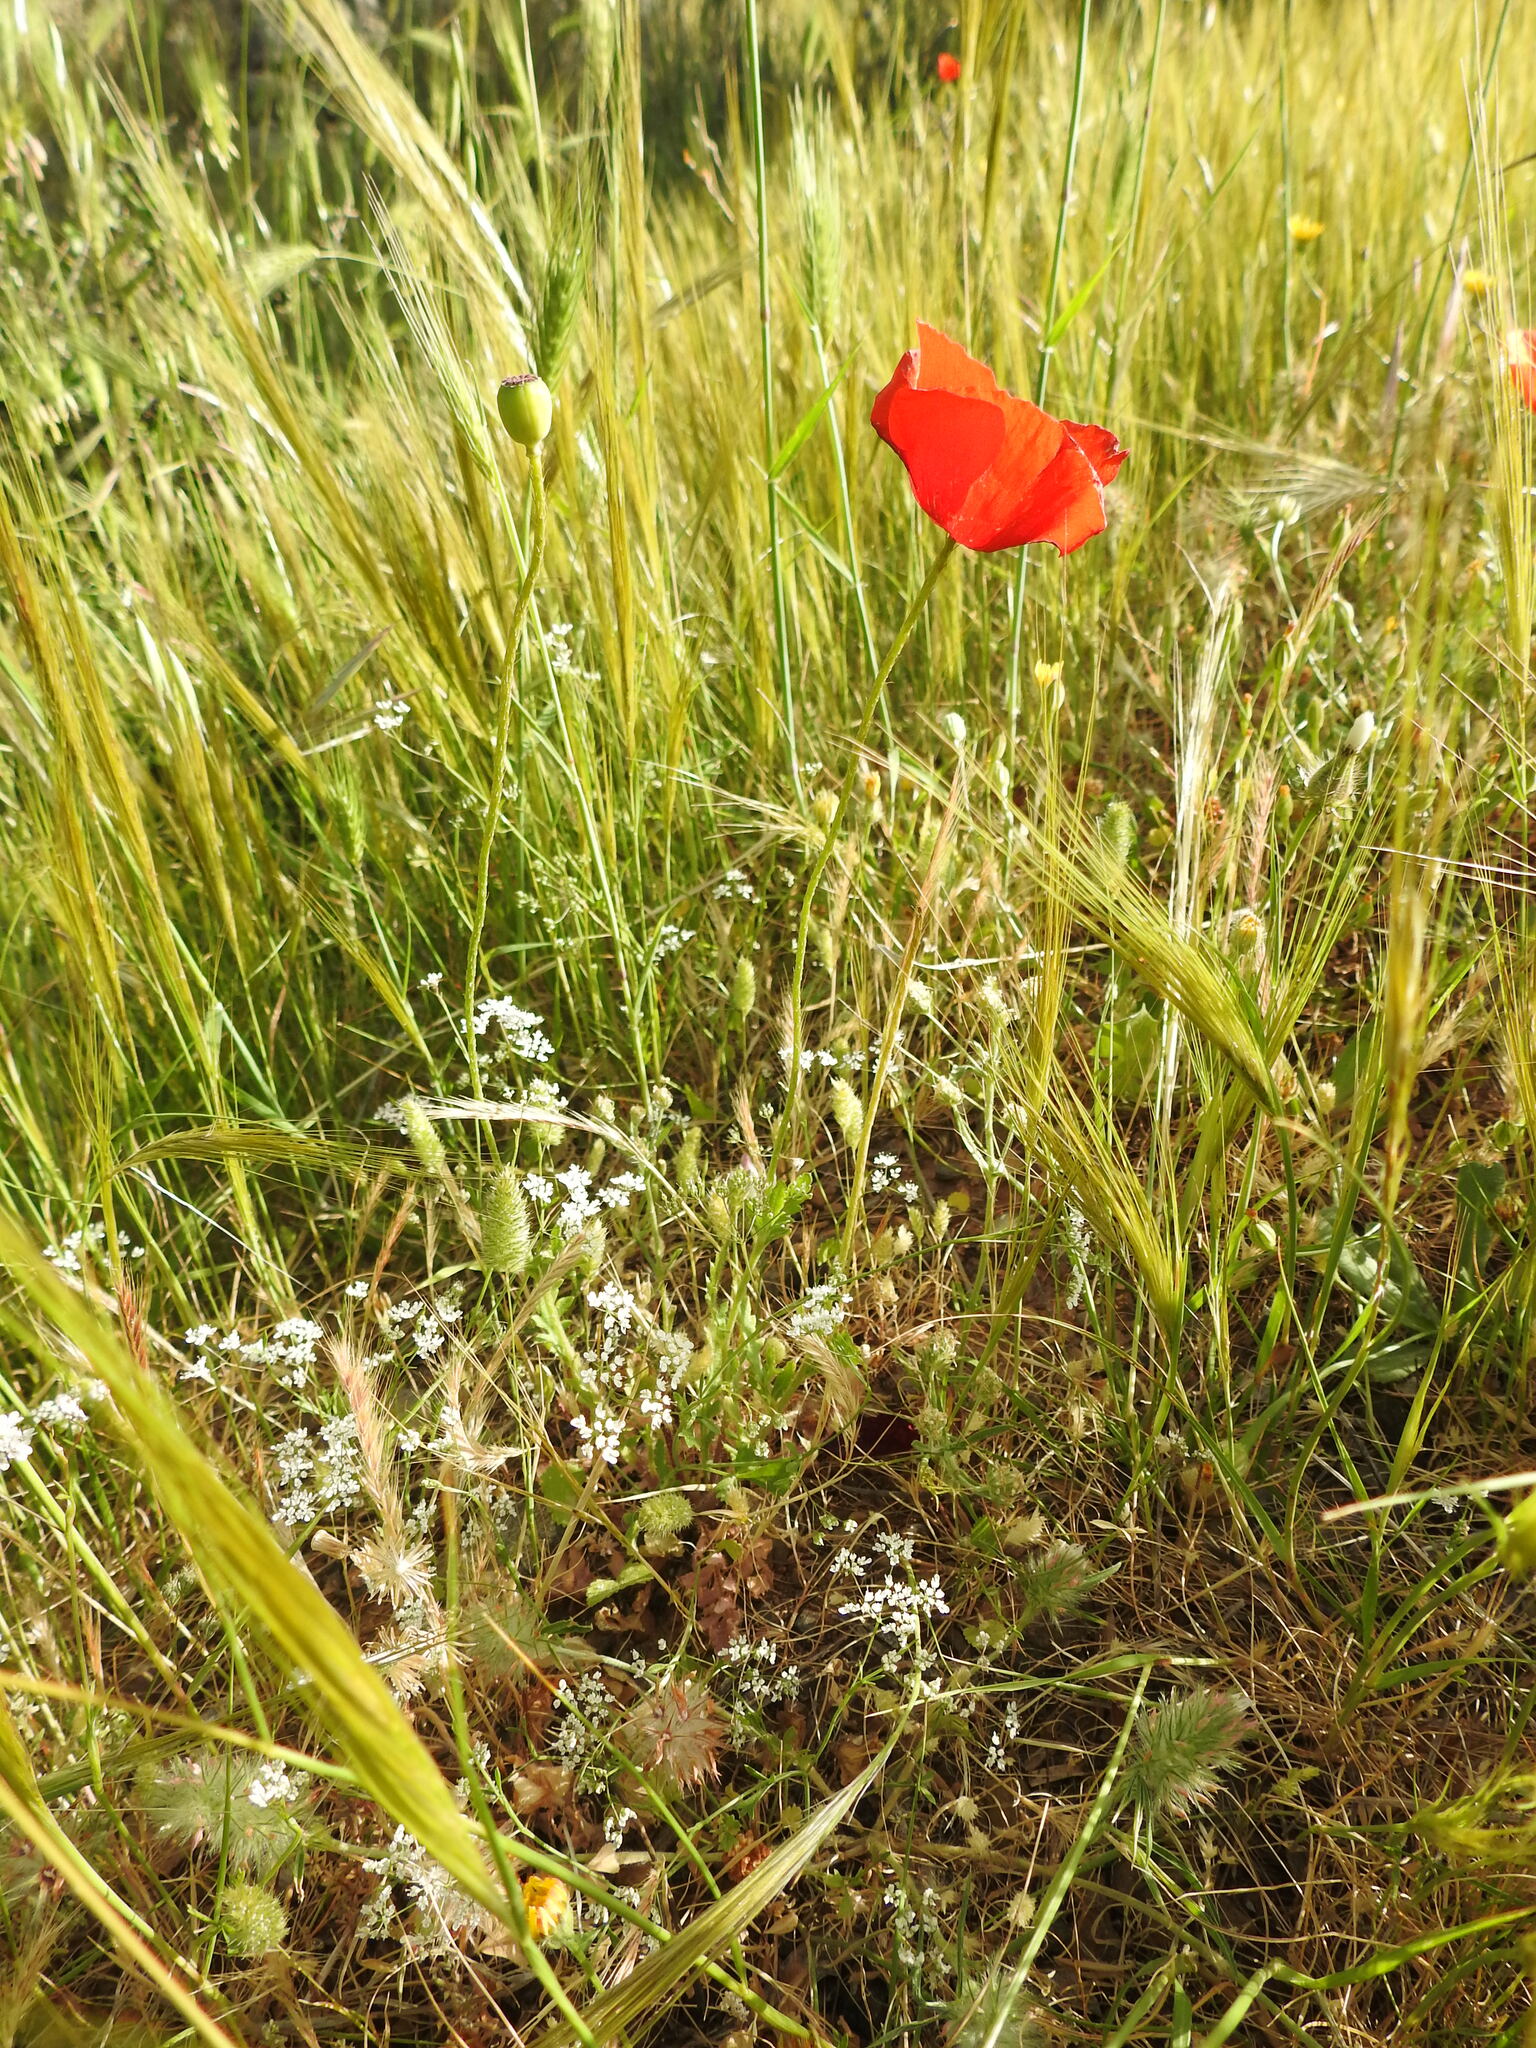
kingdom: Plantae
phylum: Tracheophyta
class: Magnoliopsida
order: Ranunculales
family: Papaveraceae
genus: Papaver
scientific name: Papaver rhoeas
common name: Corn poppy
